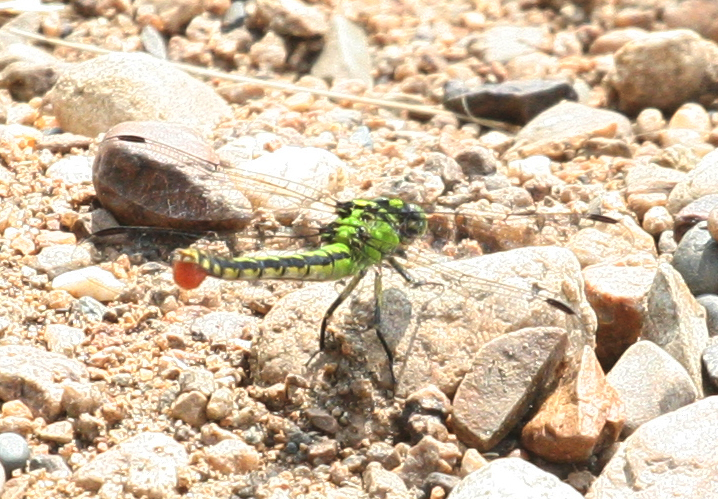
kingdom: Animalia
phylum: Arthropoda
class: Insecta
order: Odonata
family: Gomphidae
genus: Ophiogomphus
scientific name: Ophiogomphus obscurus
